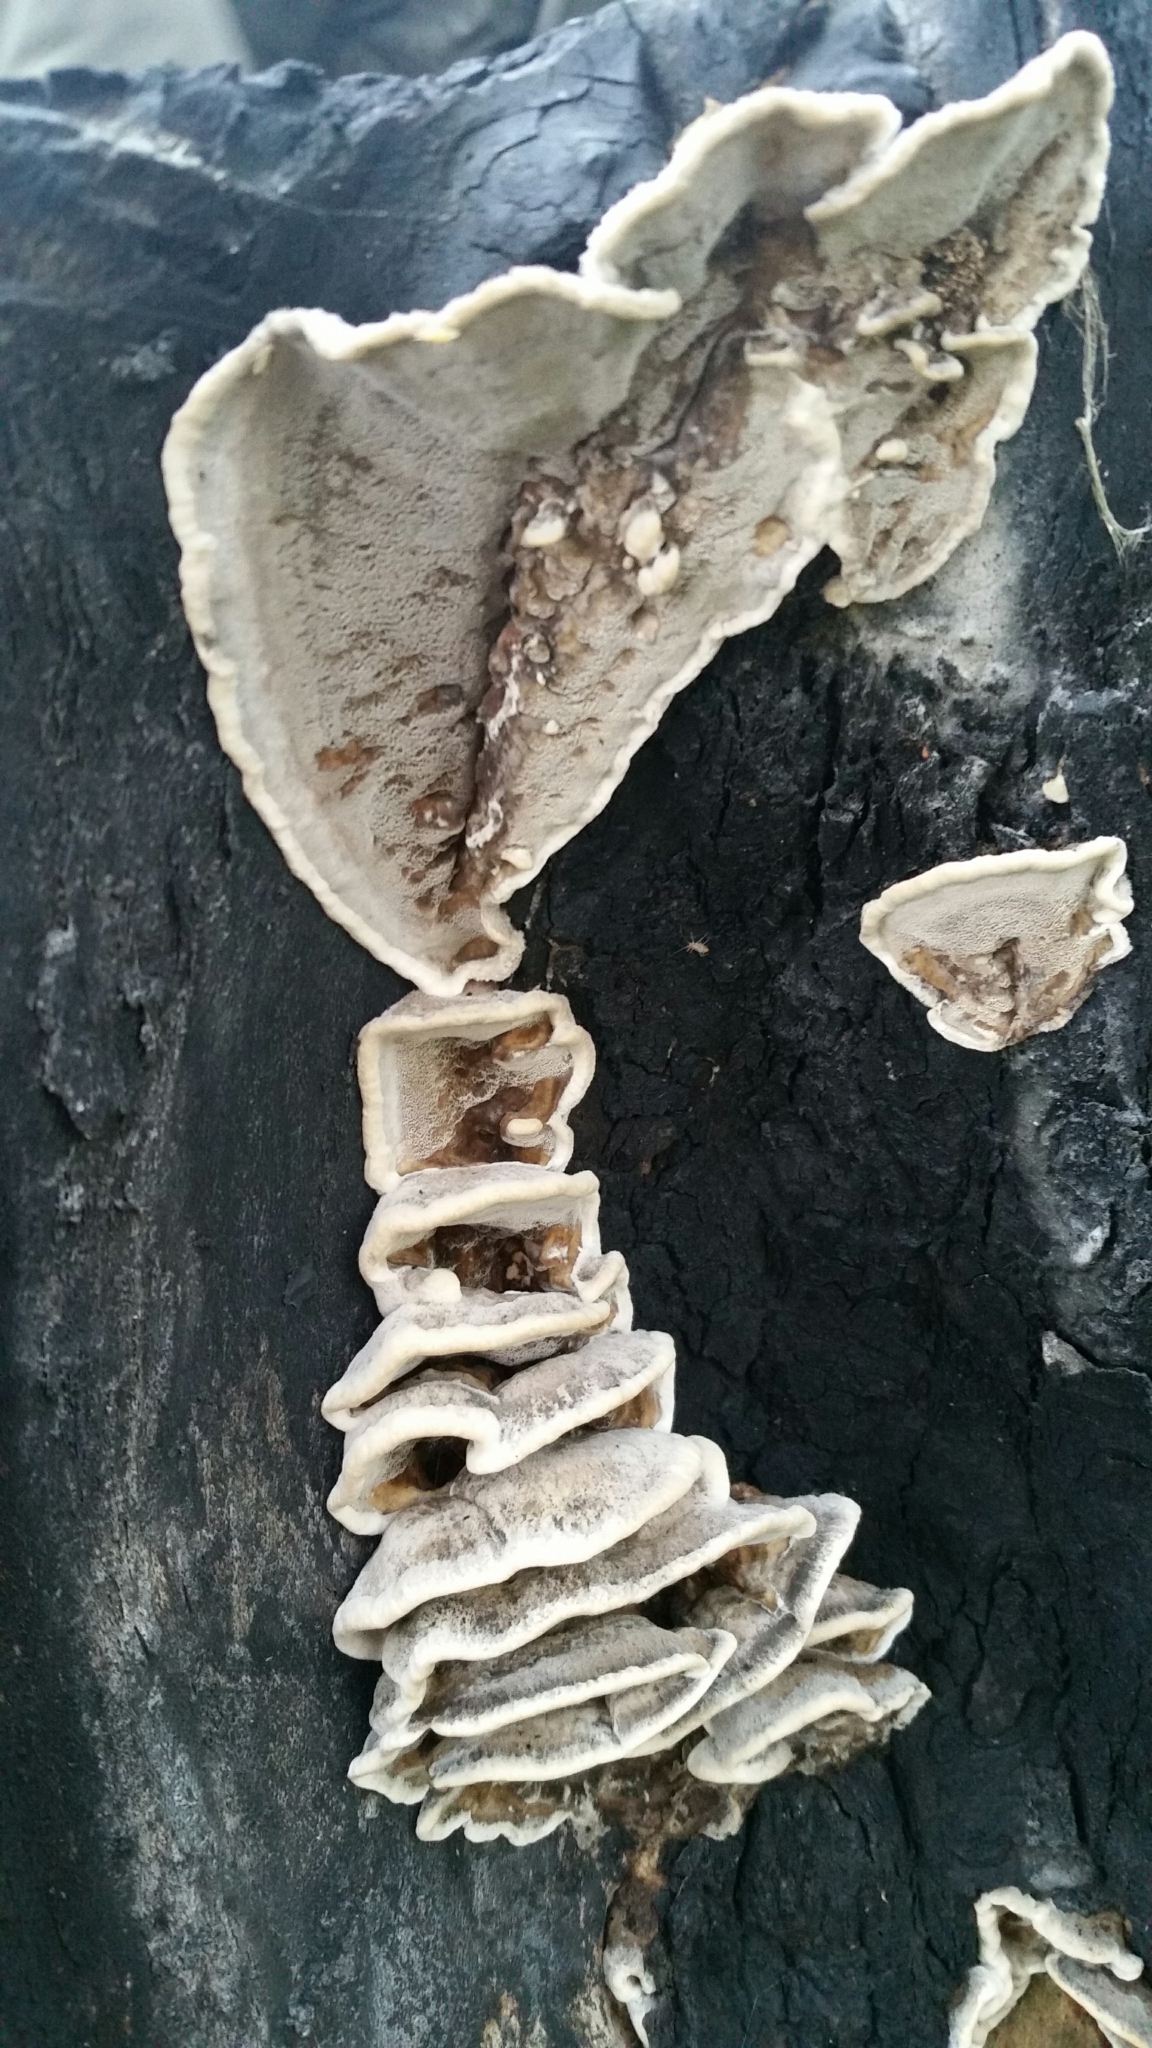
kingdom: Fungi
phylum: Basidiomycota
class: Agaricomycetes
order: Polyporales
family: Phanerochaetaceae
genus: Bjerkandera
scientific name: Bjerkandera adusta
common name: Smoky bracket
